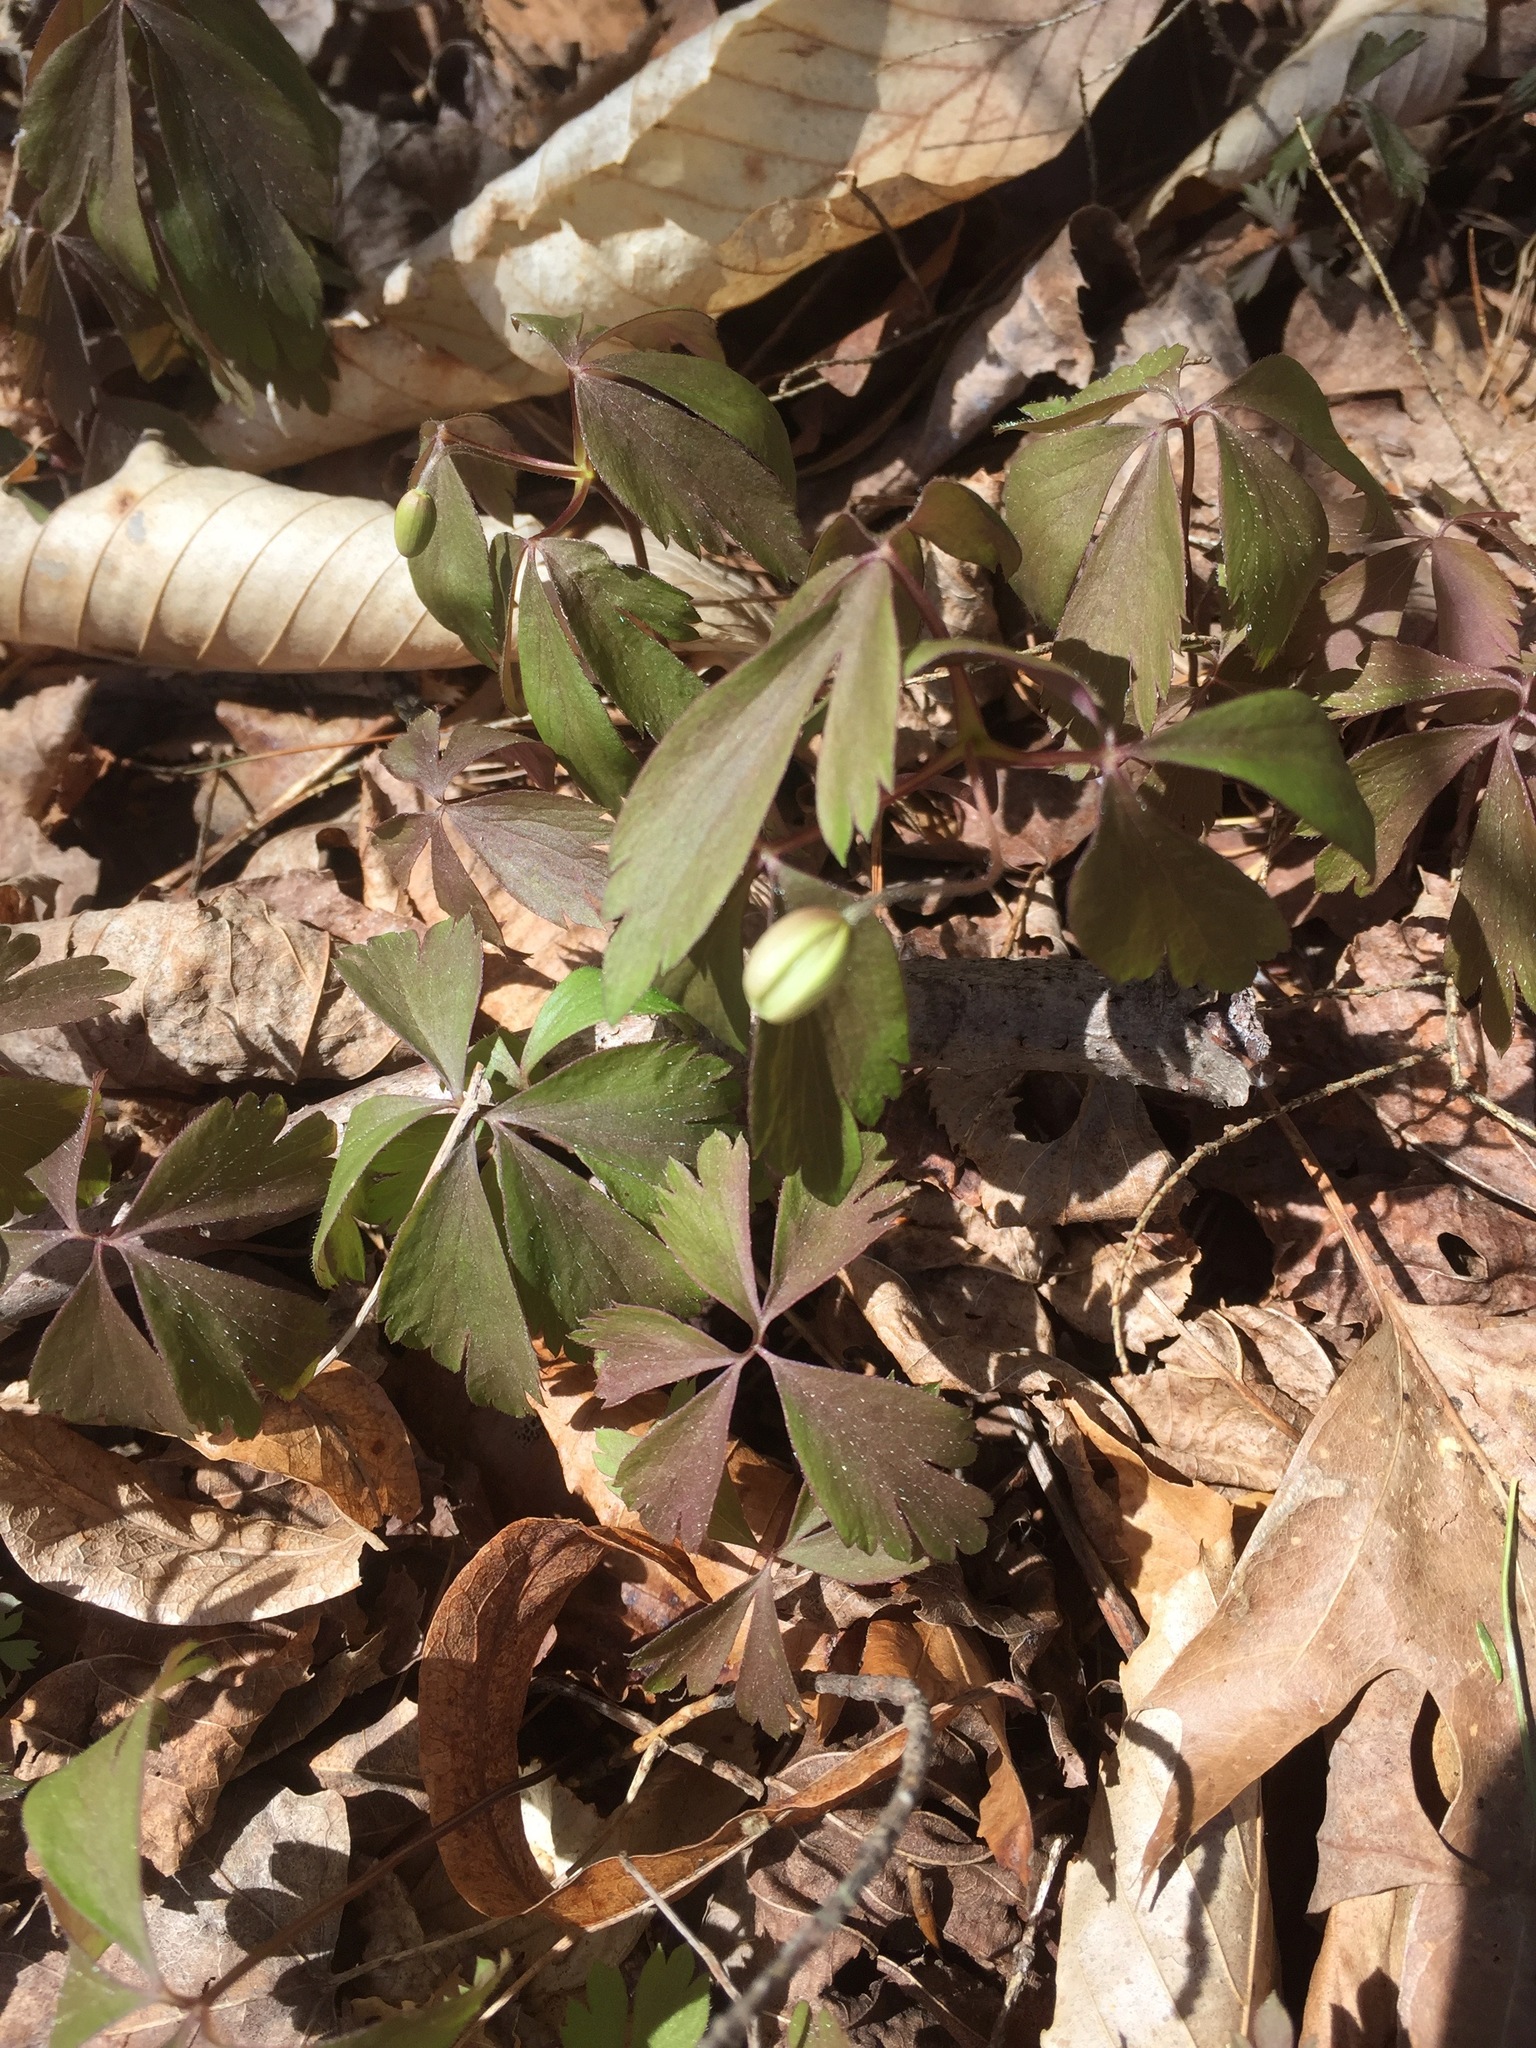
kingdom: Plantae
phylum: Tracheophyta
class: Magnoliopsida
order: Ranunculales
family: Ranunculaceae
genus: Anemone
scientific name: Anemone quinquefolia
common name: Wood anemone
